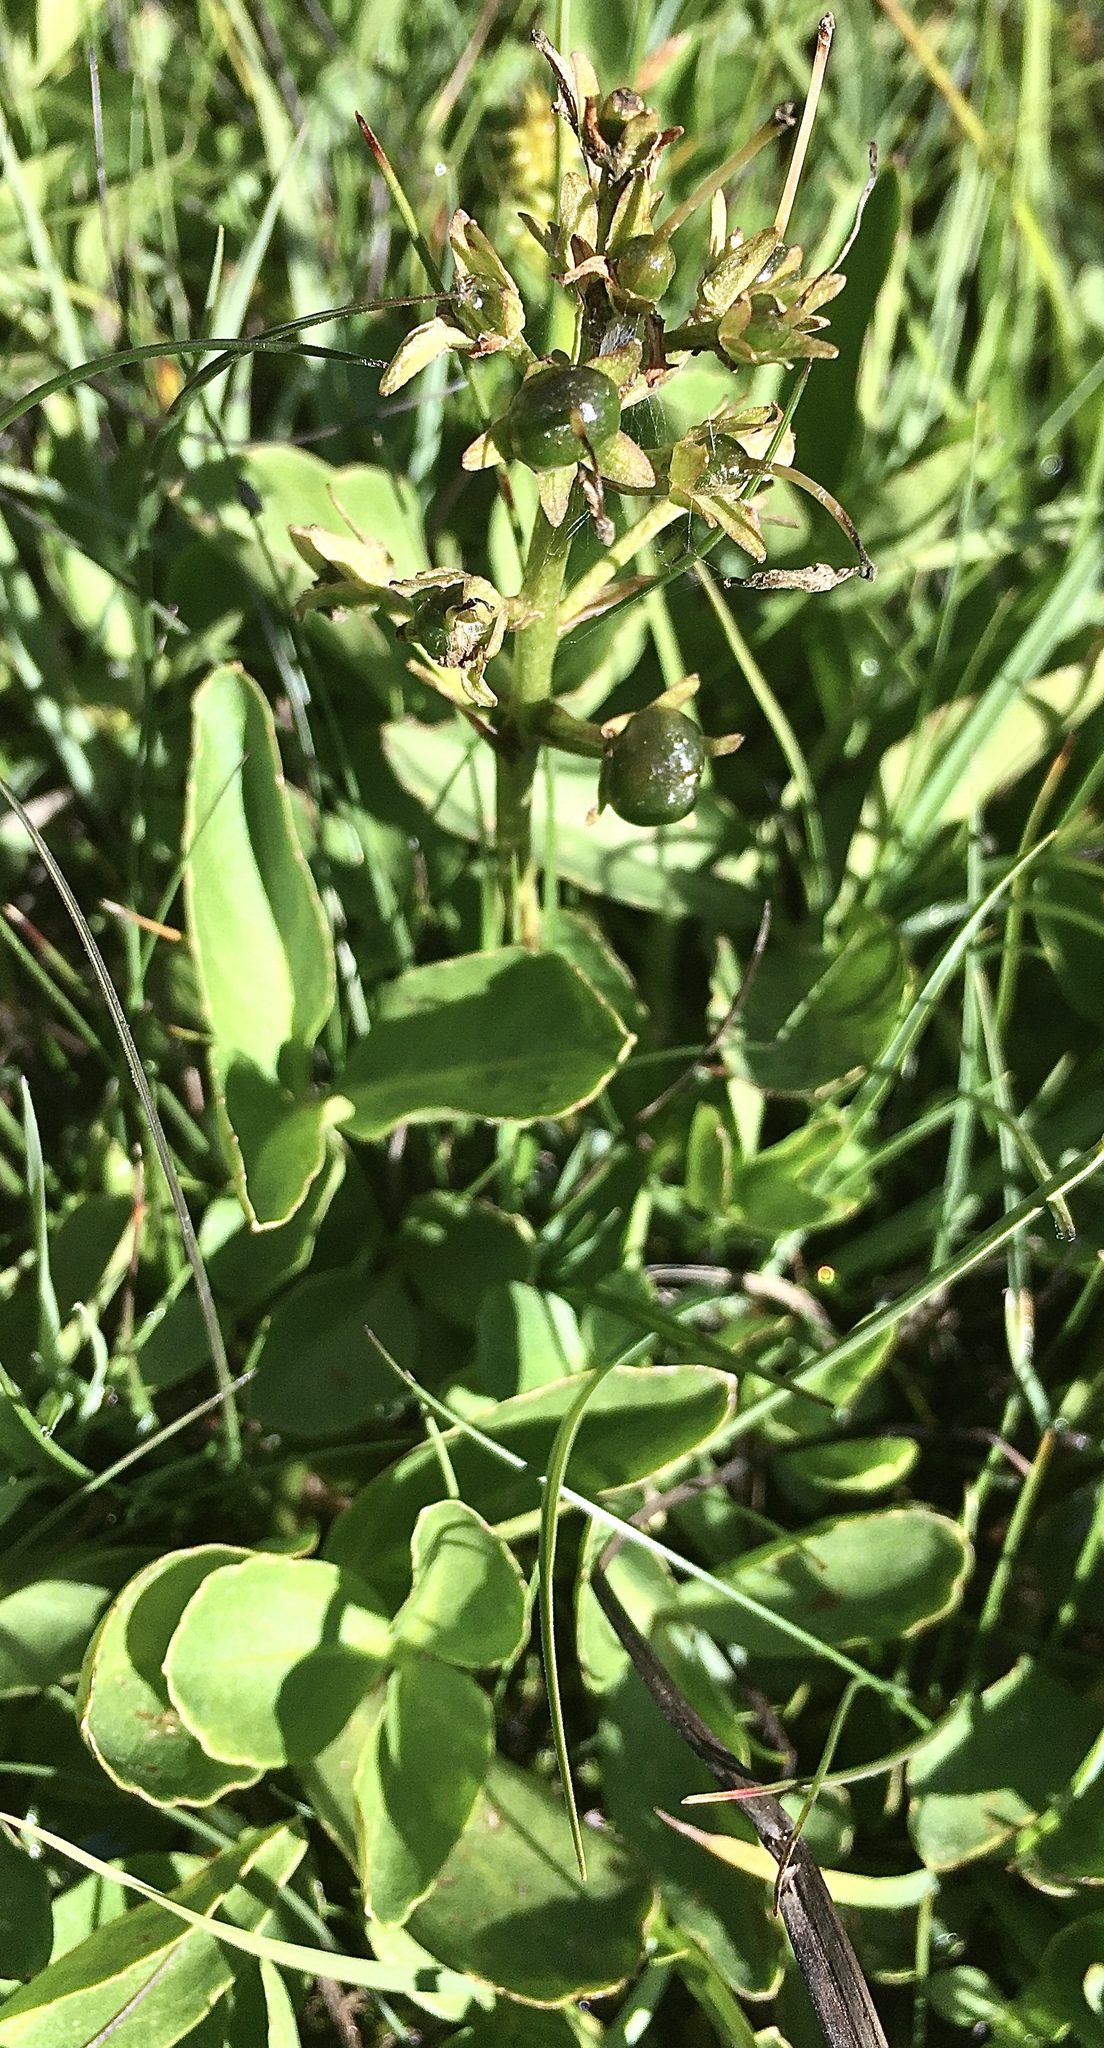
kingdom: Plantae
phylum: Tracheophyta
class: Magnoliopsida
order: Asterales
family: Menyanthaceae
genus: Menyanthes
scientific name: Menyanthes trifoliata
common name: Bogbean
